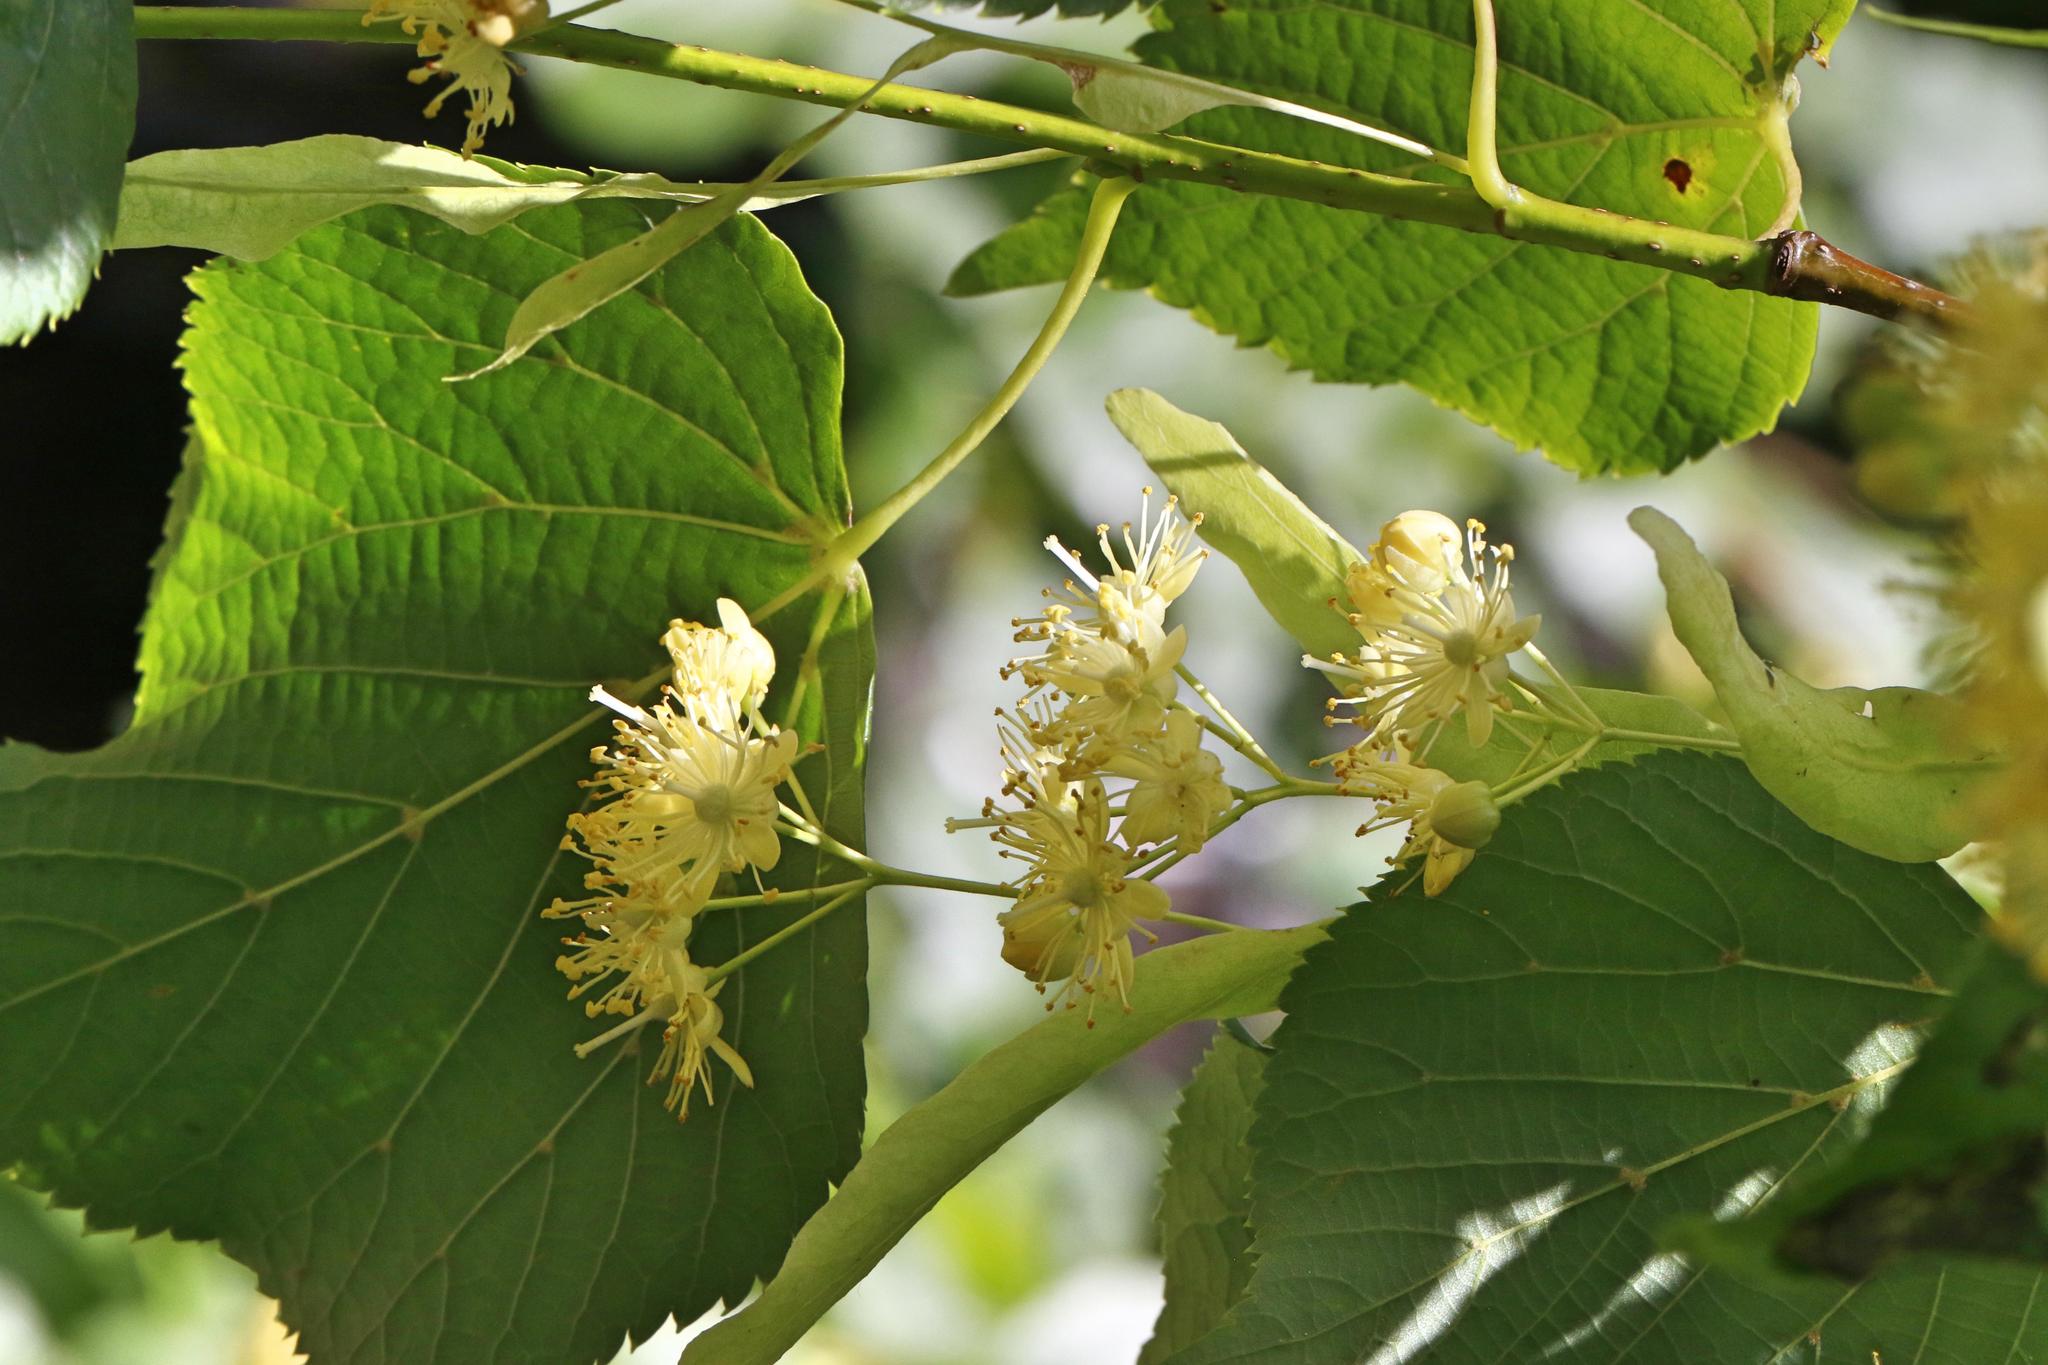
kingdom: Plantae
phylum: Tracheophyta
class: Magnoliopsida
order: Malvales
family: Malvaceae
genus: Tilia
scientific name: Tilia europaea
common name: European linden
